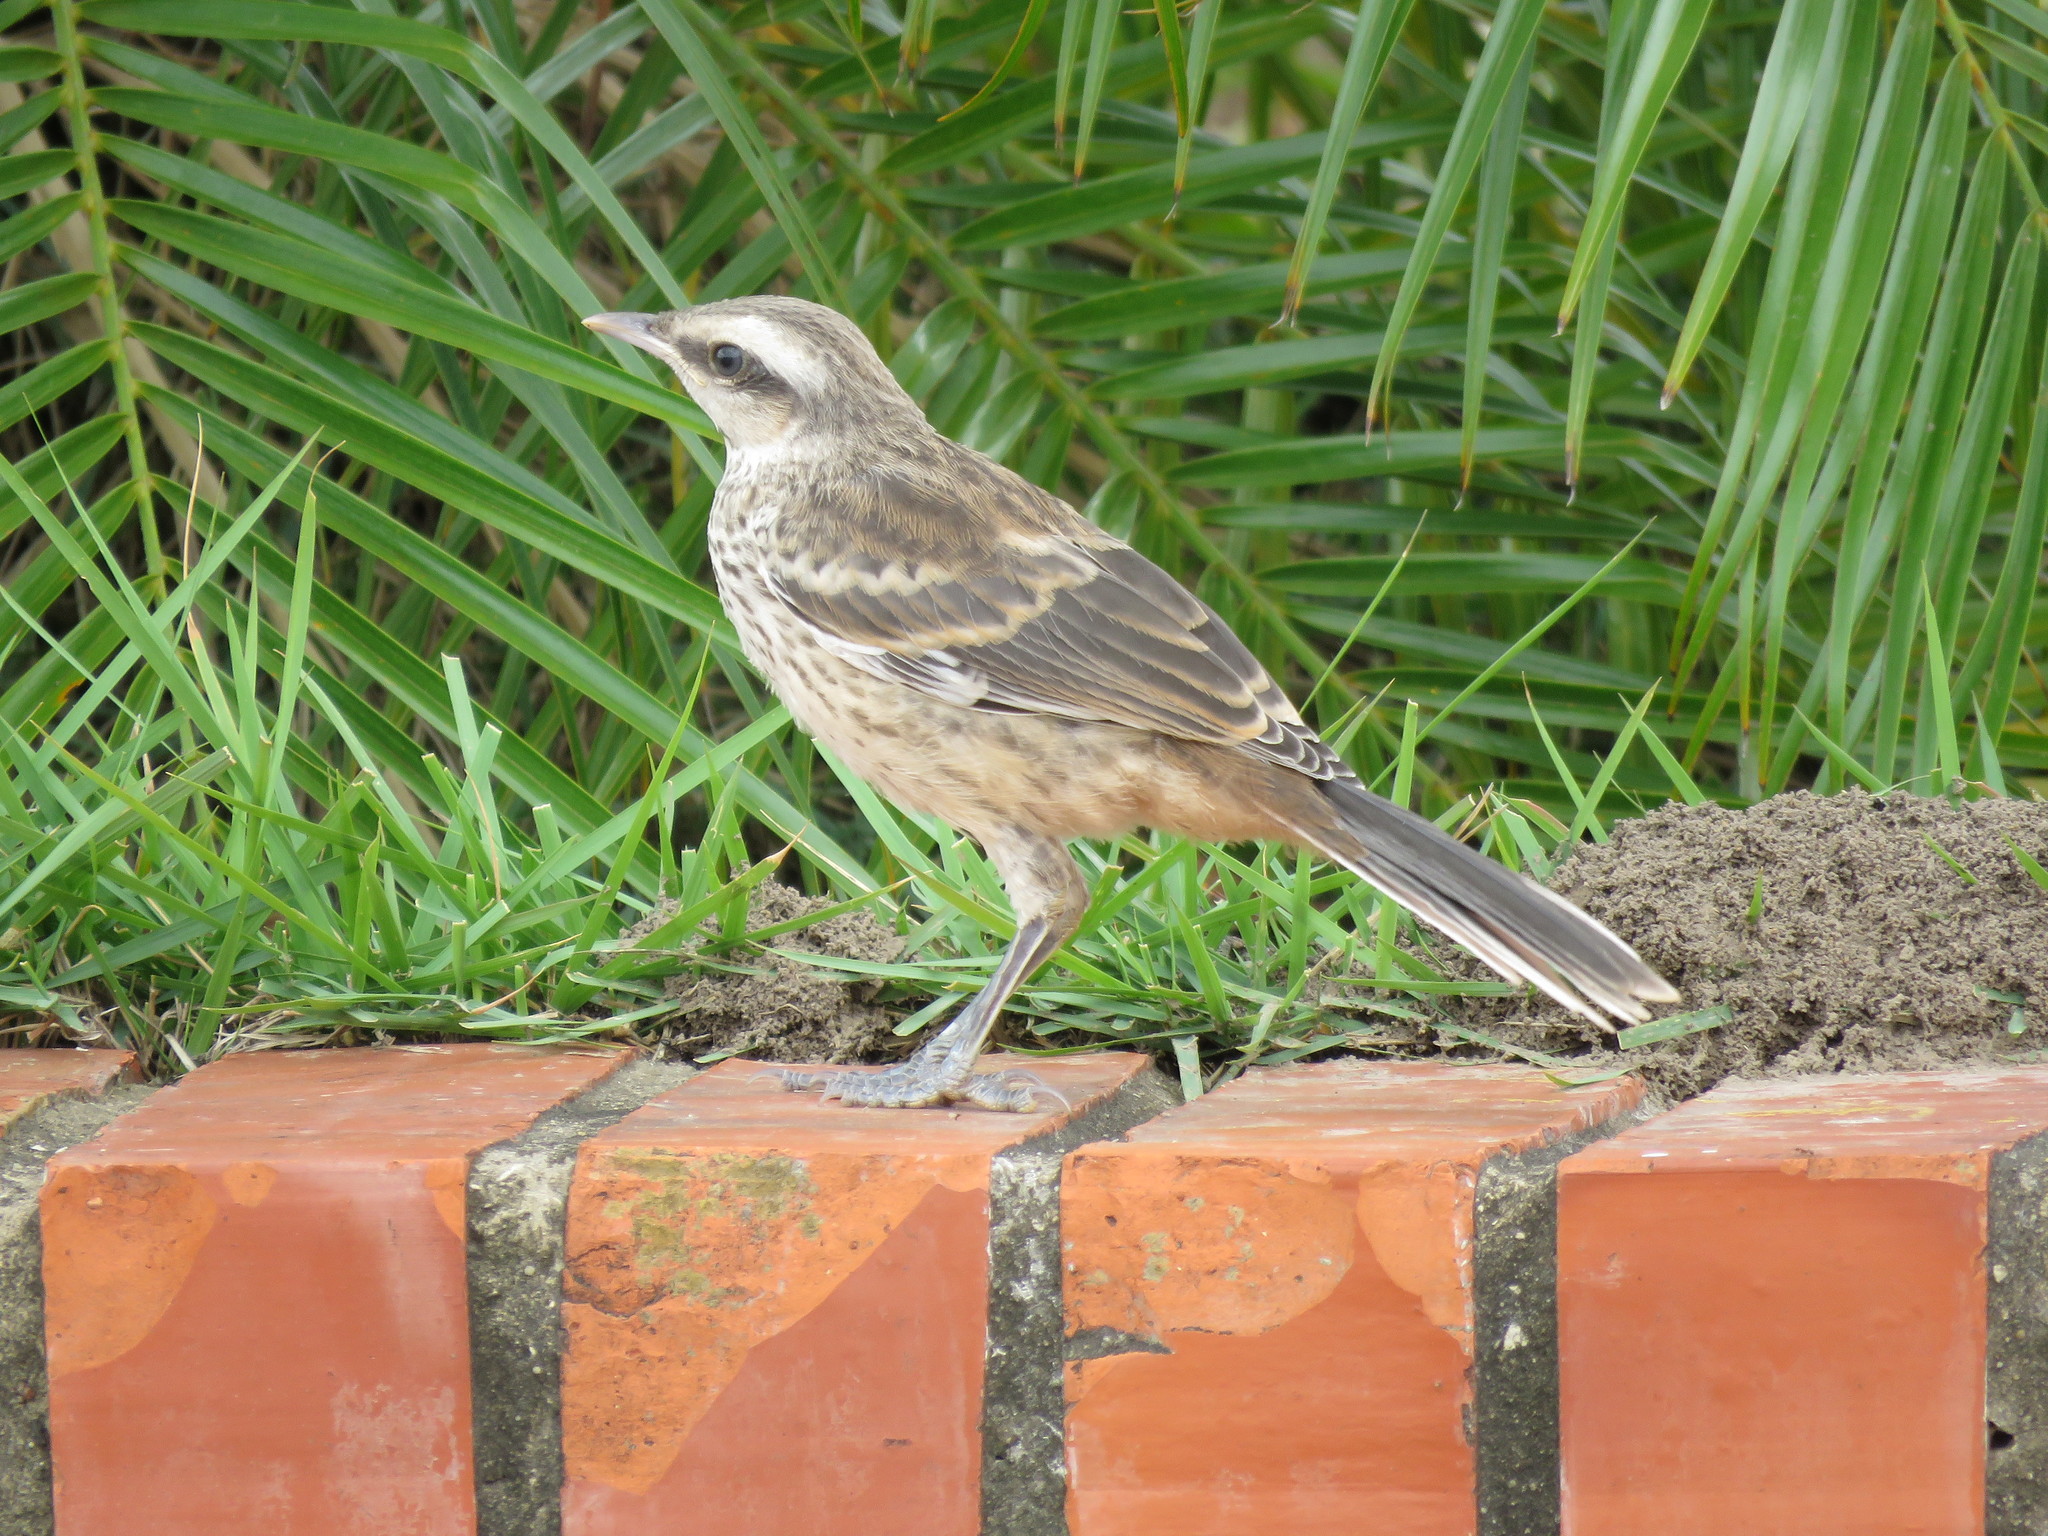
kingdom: Animalia
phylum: Chordata
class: Aves
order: Passeriformes
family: Mimidae
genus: Mimus
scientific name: Mimus saturninus
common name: Chalk-browed mockingbird
